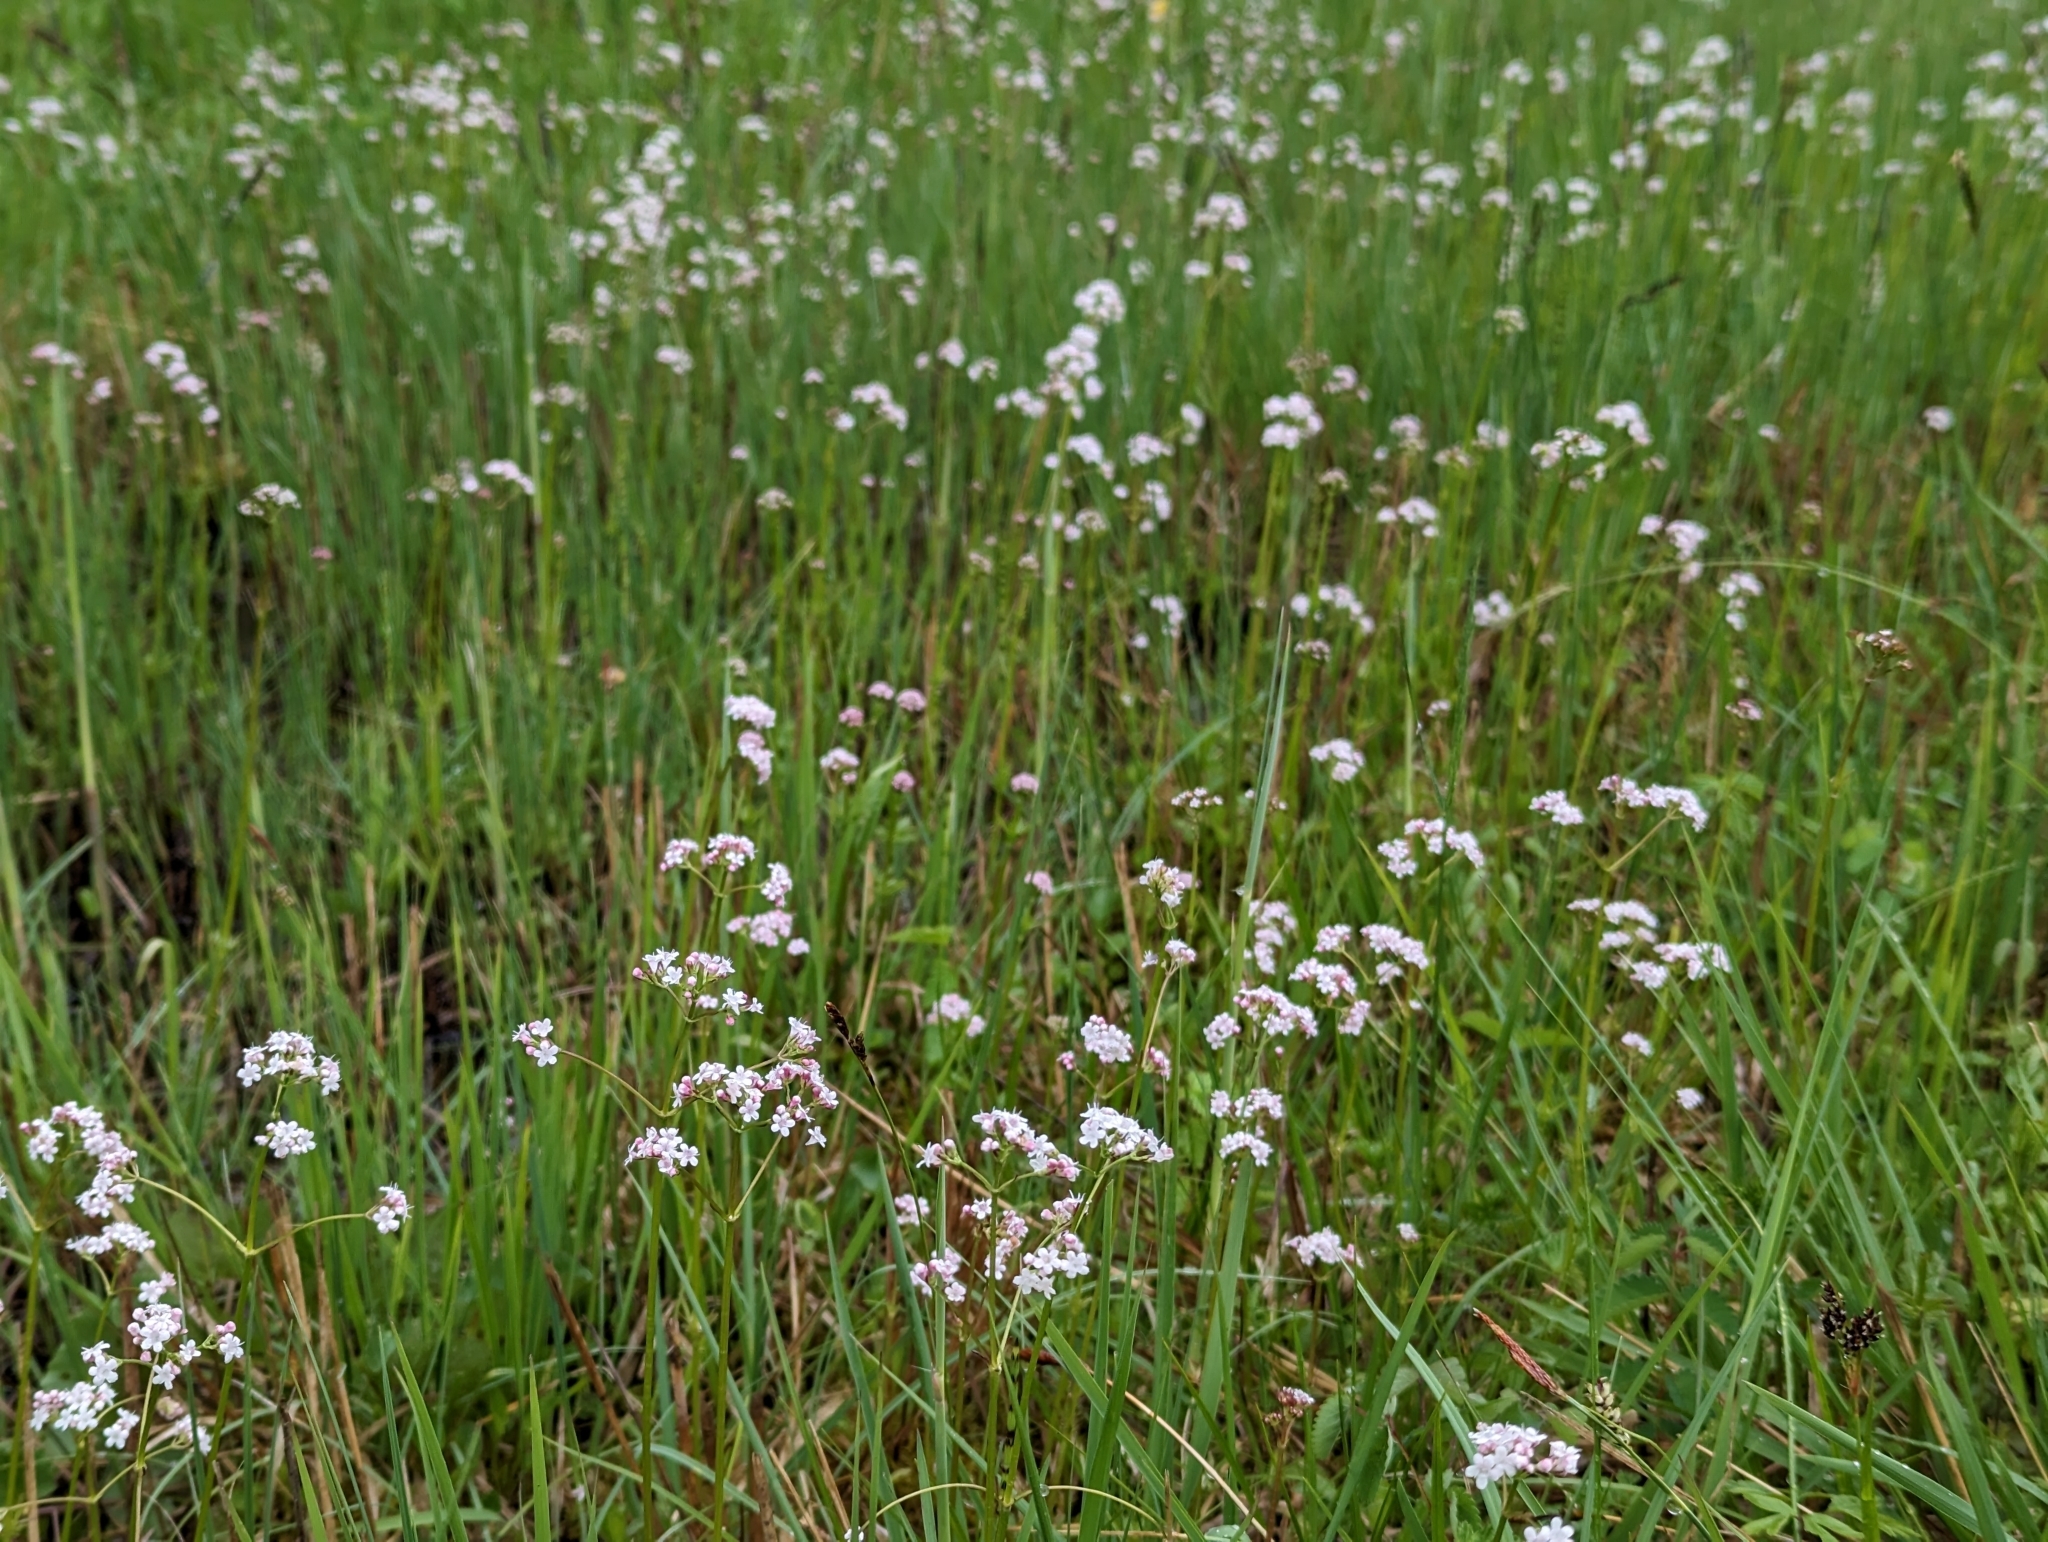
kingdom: Plantae
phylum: Tracheophyta
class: Magnoliopsida
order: Dipsacales
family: Caprifoliaceae
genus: Valeriana
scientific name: Valeriana dioica
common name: Marsh valerian
